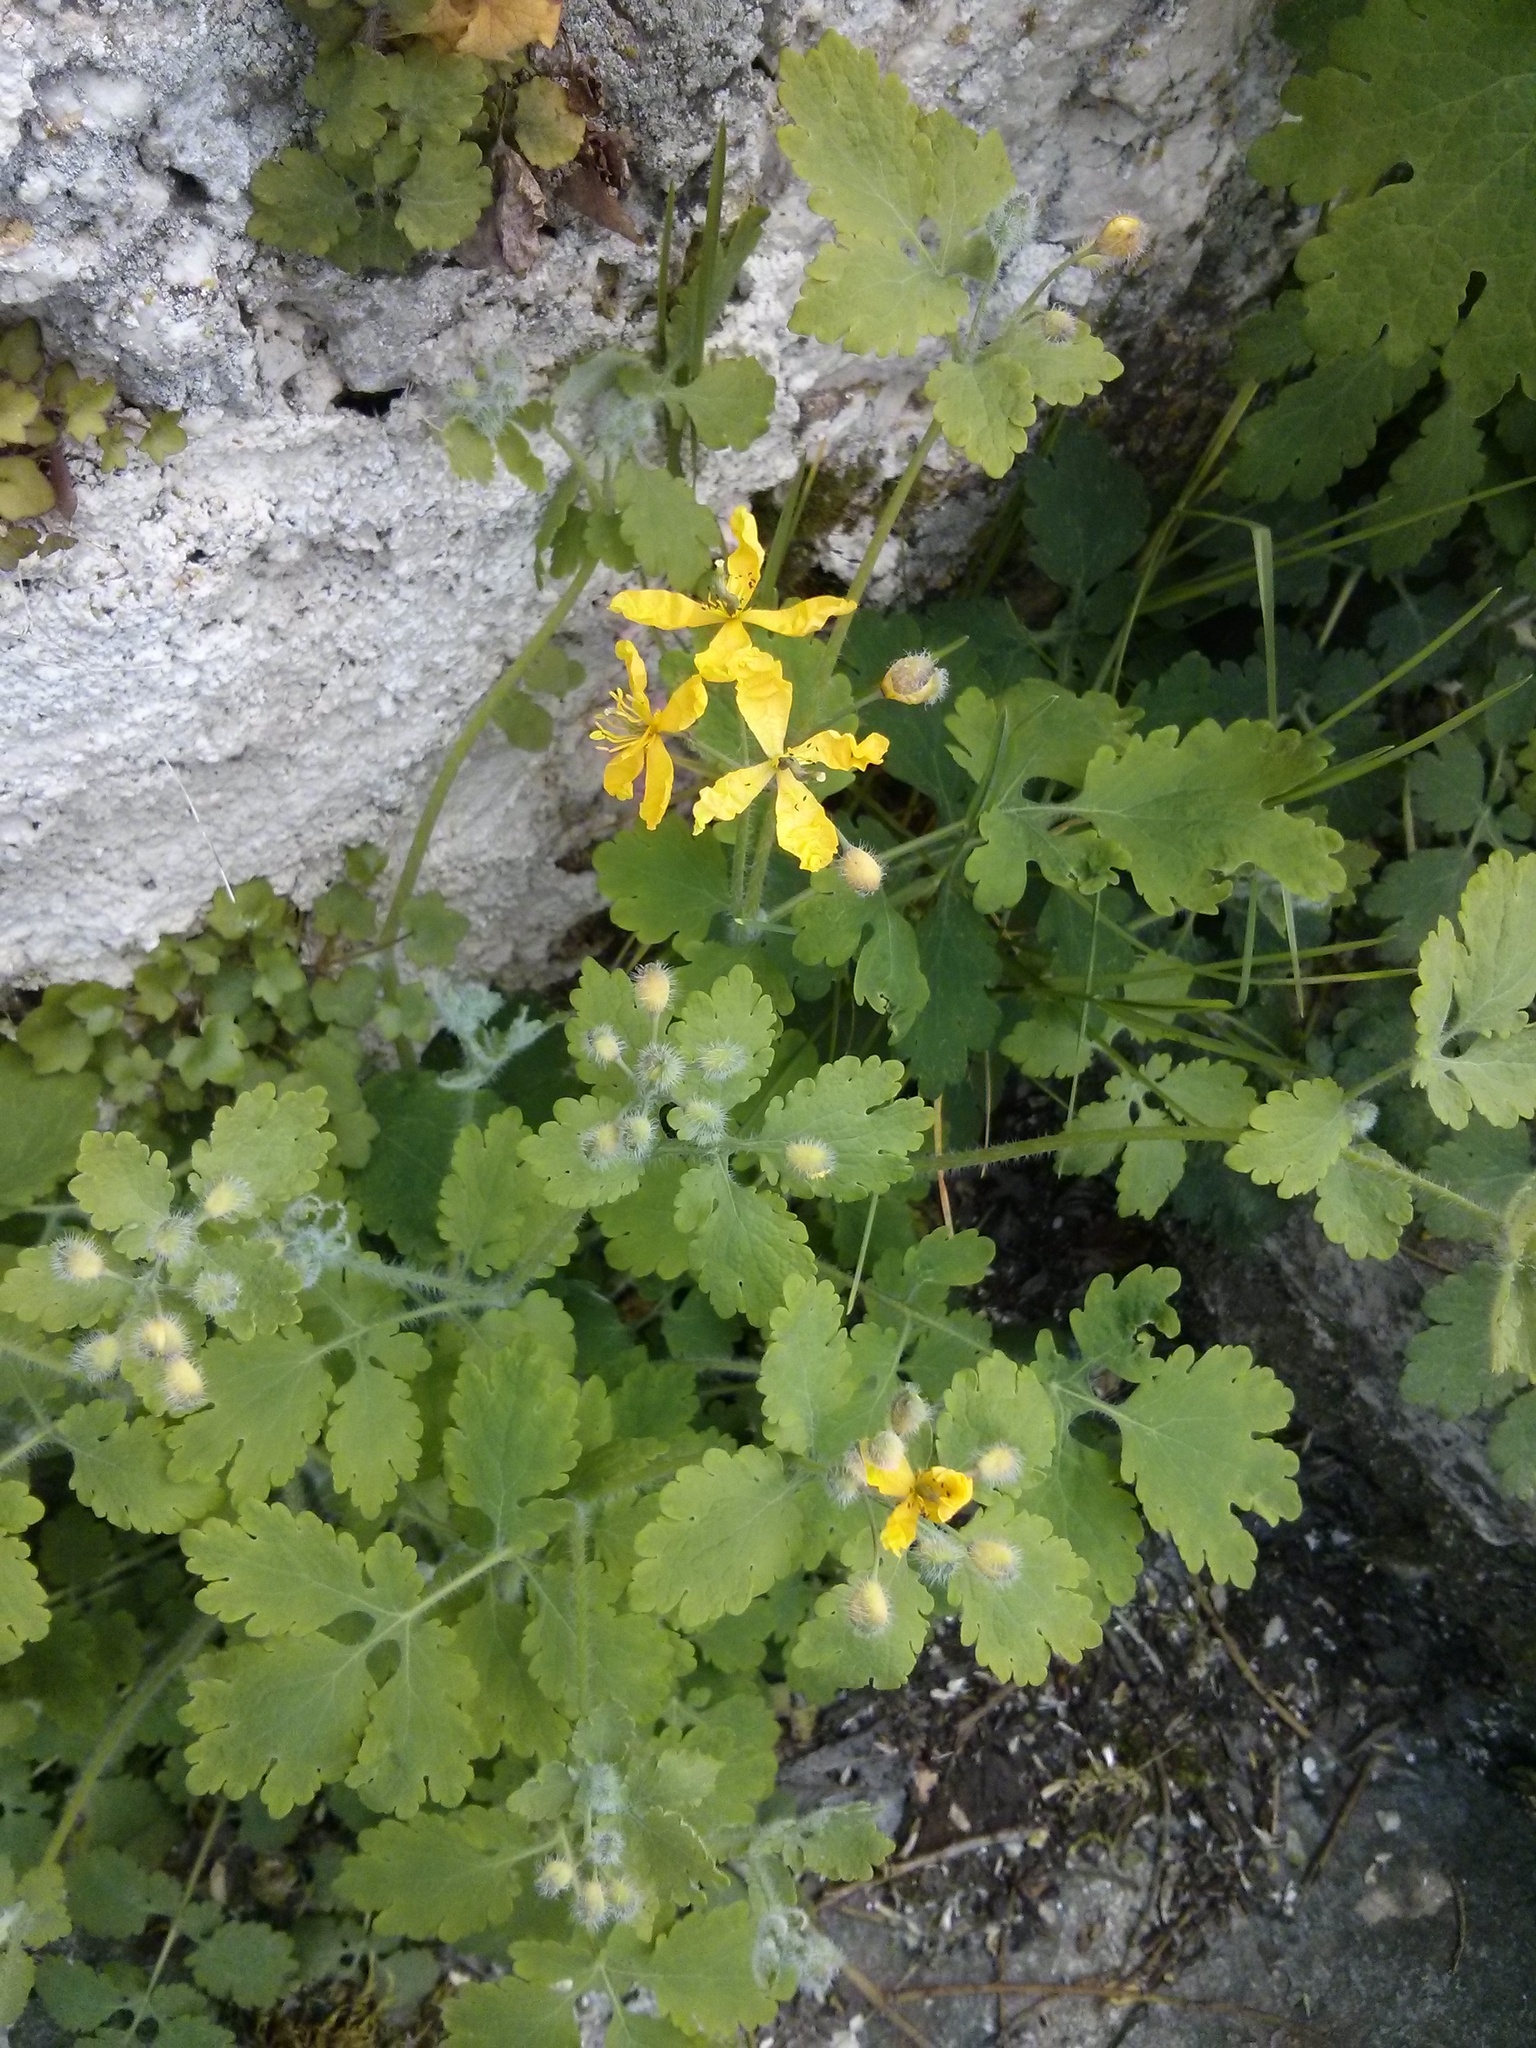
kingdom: Plantae
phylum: Tracheophyta
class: Magnoliopsida
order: Ranunculales
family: Papaveraceae
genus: Chelidonium
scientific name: Chelidonium majus
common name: Greater celandine
